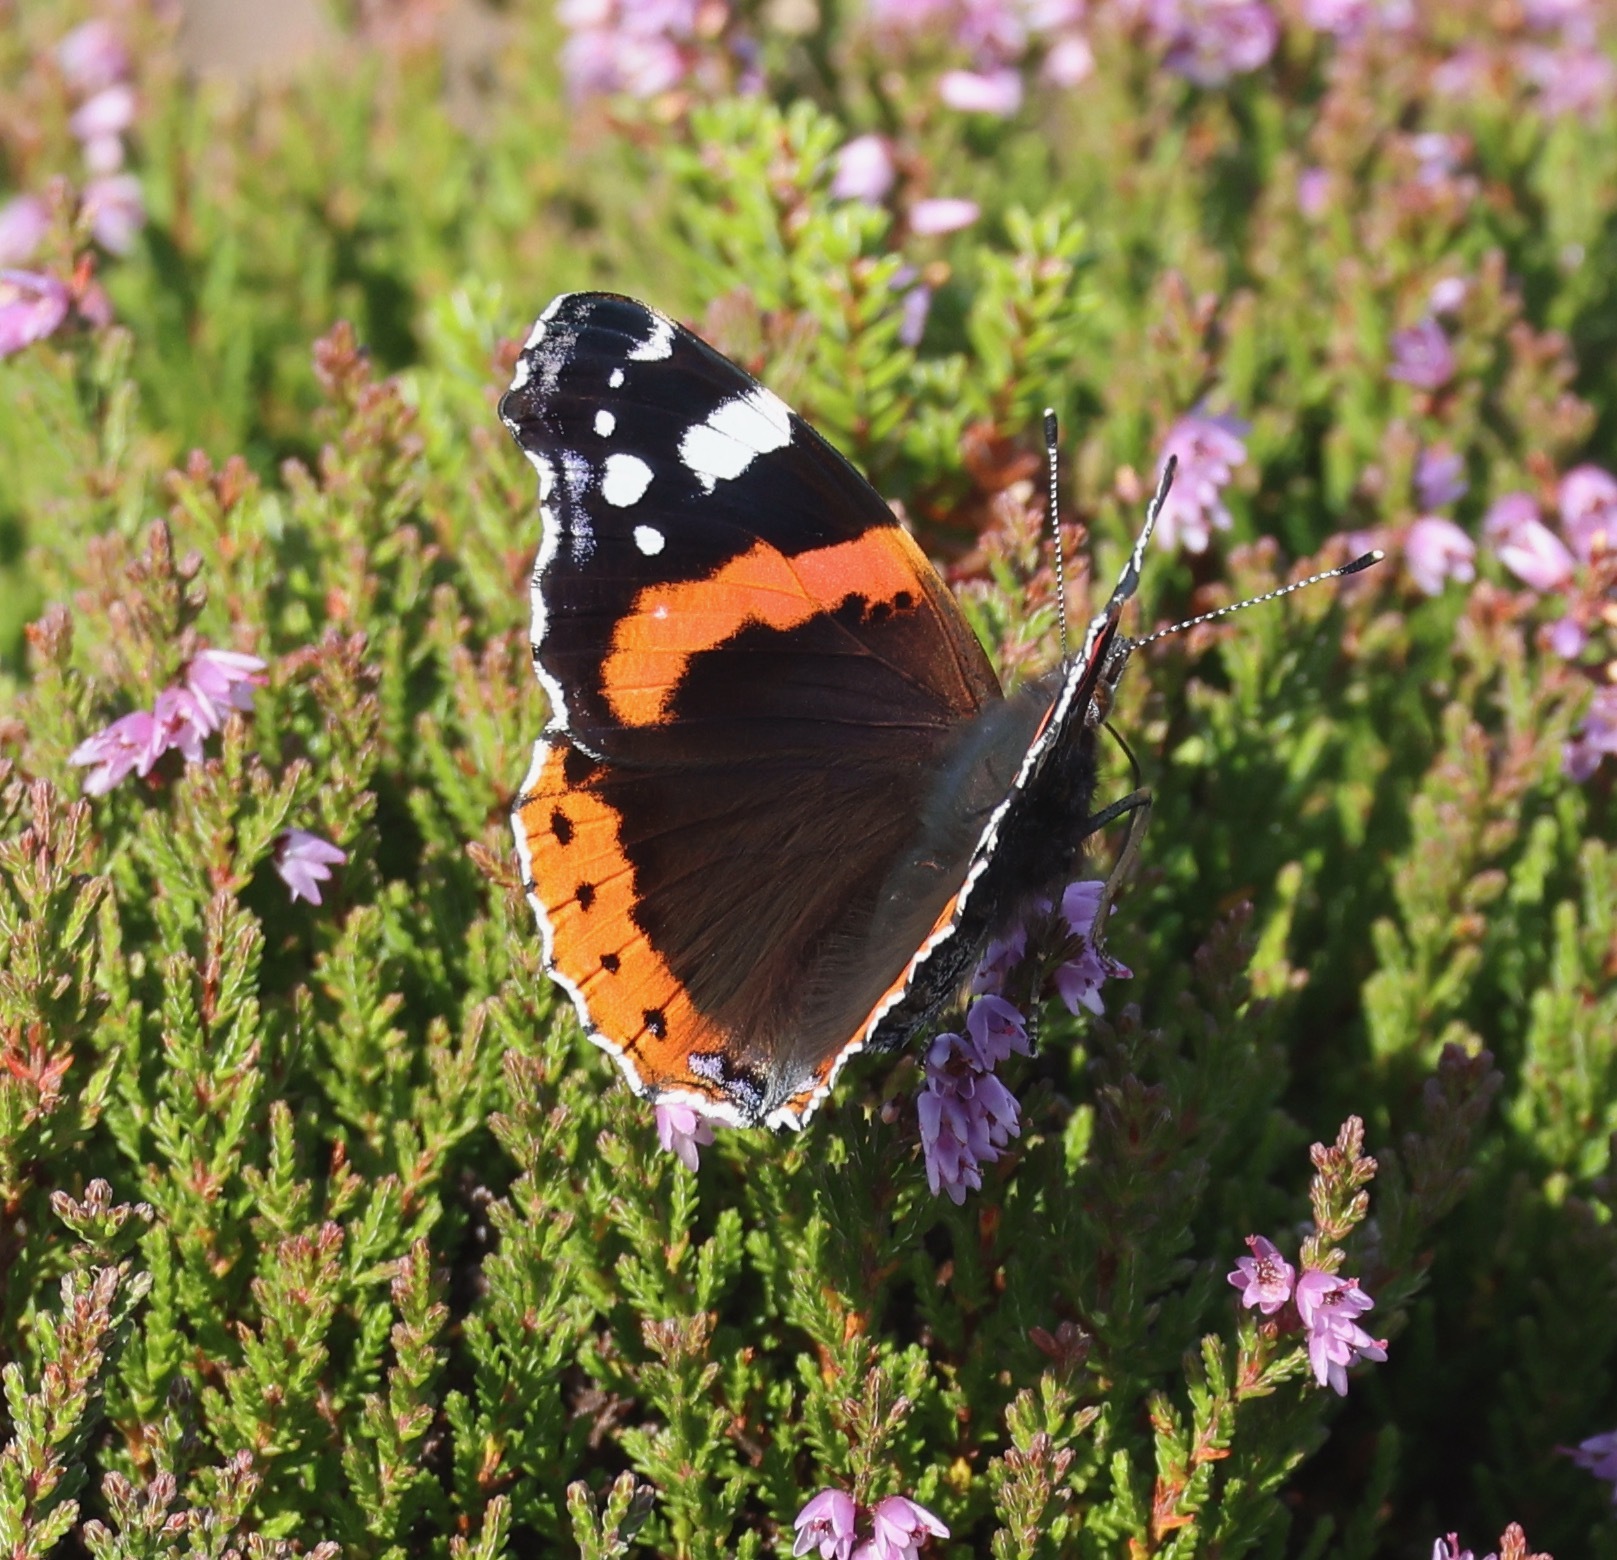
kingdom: Animalia
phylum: Arthropoda
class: Insecta
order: Lepidoptera
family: Nymphalidae
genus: Vanessa
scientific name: Vanessa atalanta
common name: Red admiral
